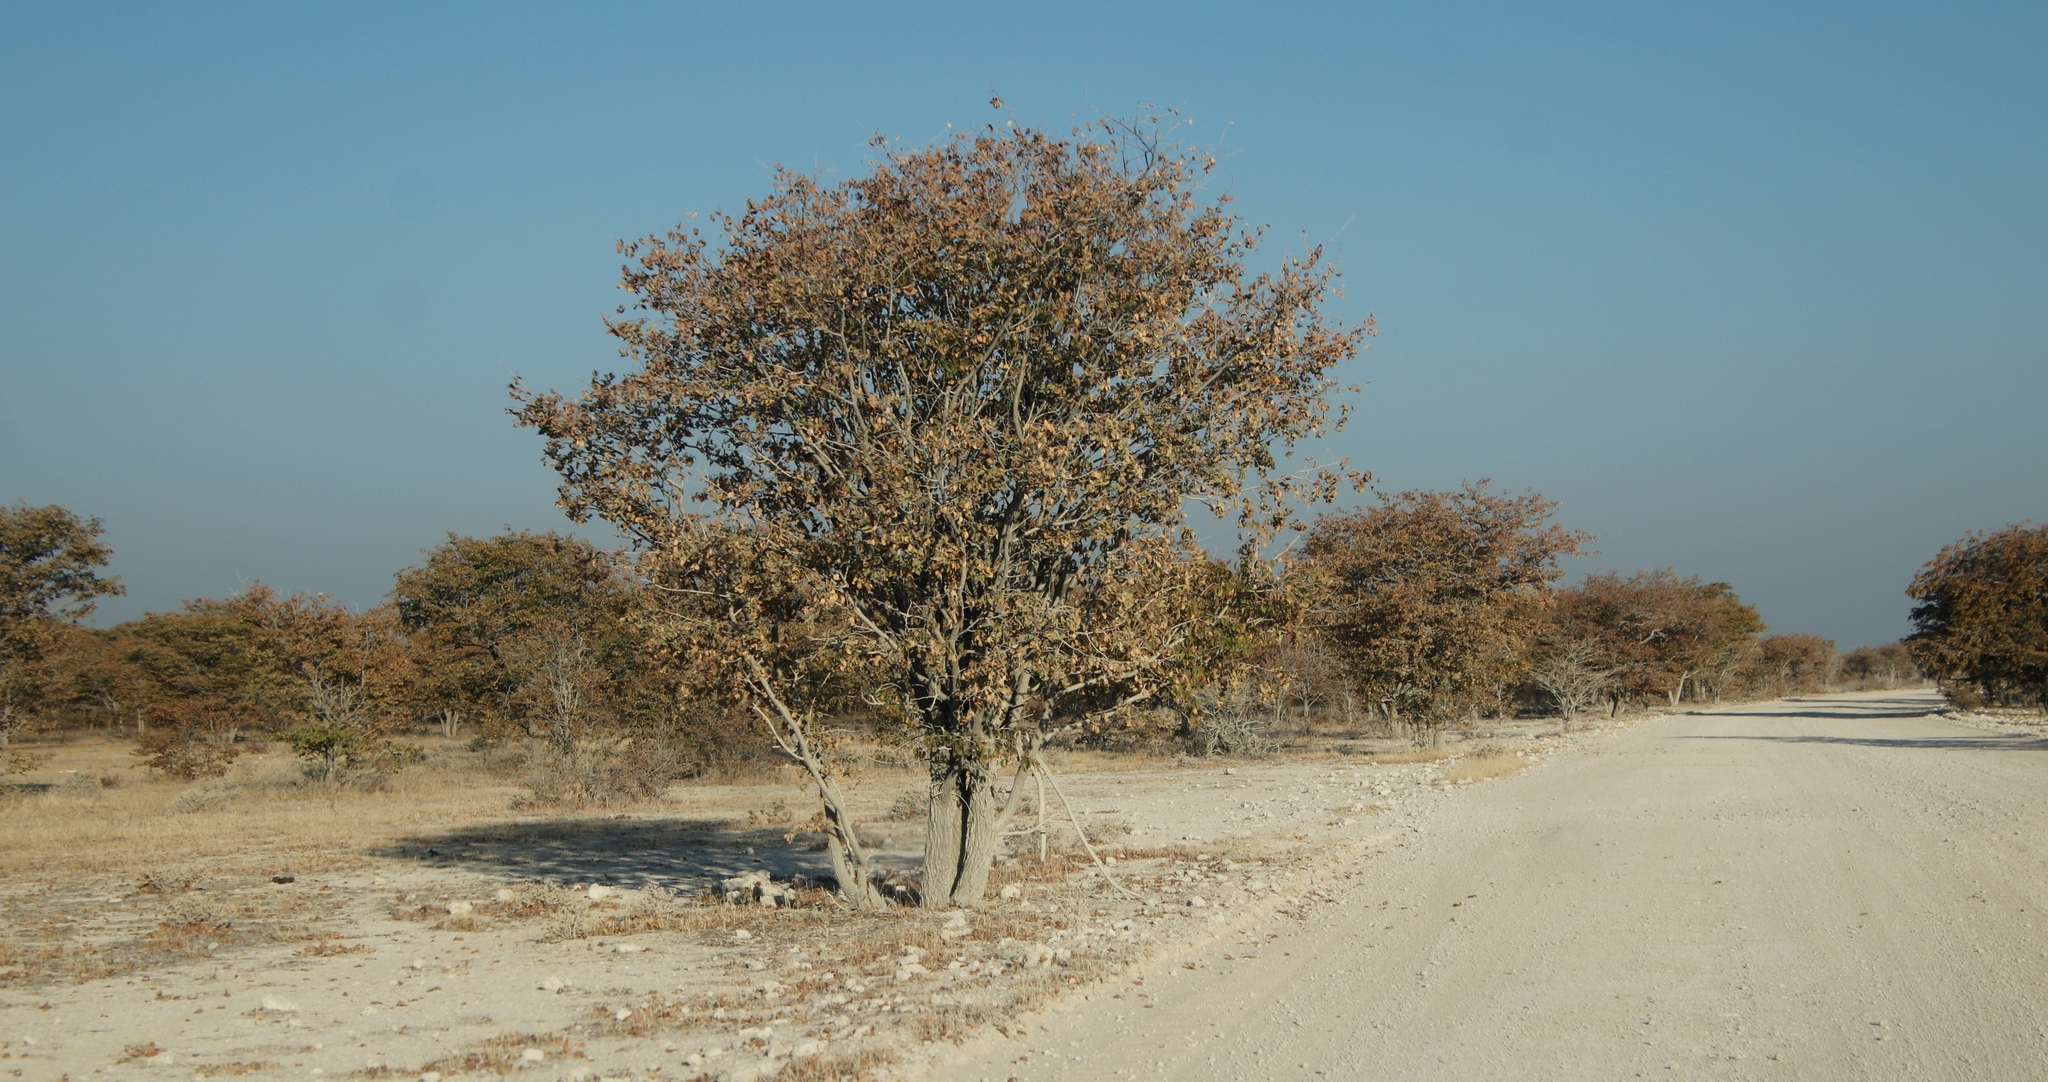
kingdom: Plantae
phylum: Tracheophyta
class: Magnoliopsida
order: Fabales
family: Fabaceae
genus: Colophospermum
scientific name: Colophospermum mopane
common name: Mopane
